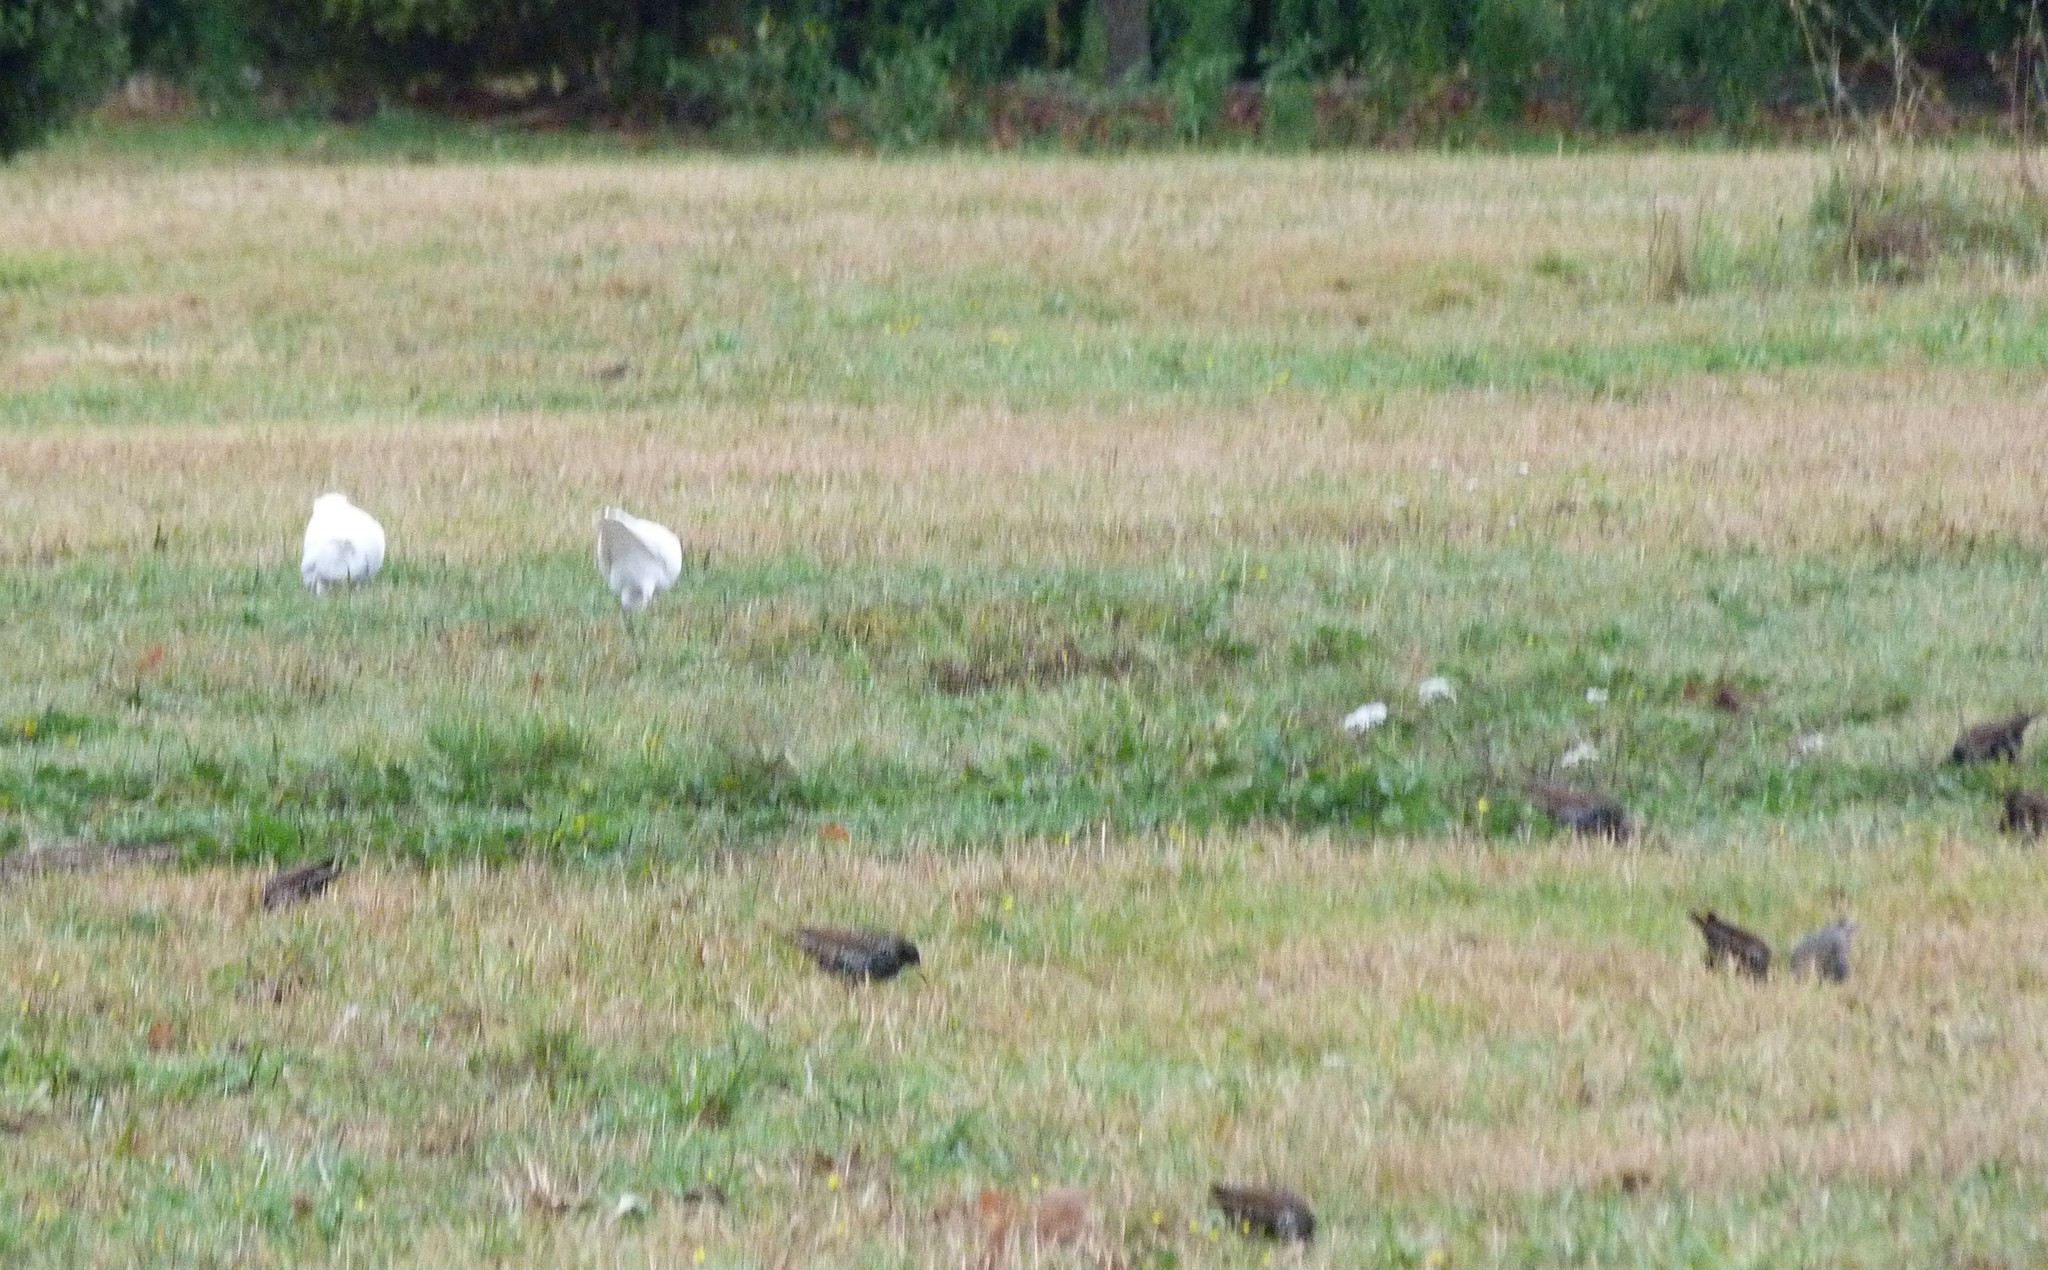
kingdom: Animalia
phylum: Chordata
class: Aves
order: Columbiformes
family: Columbidae
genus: Columba
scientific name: Columba livia
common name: Rock pigeon
